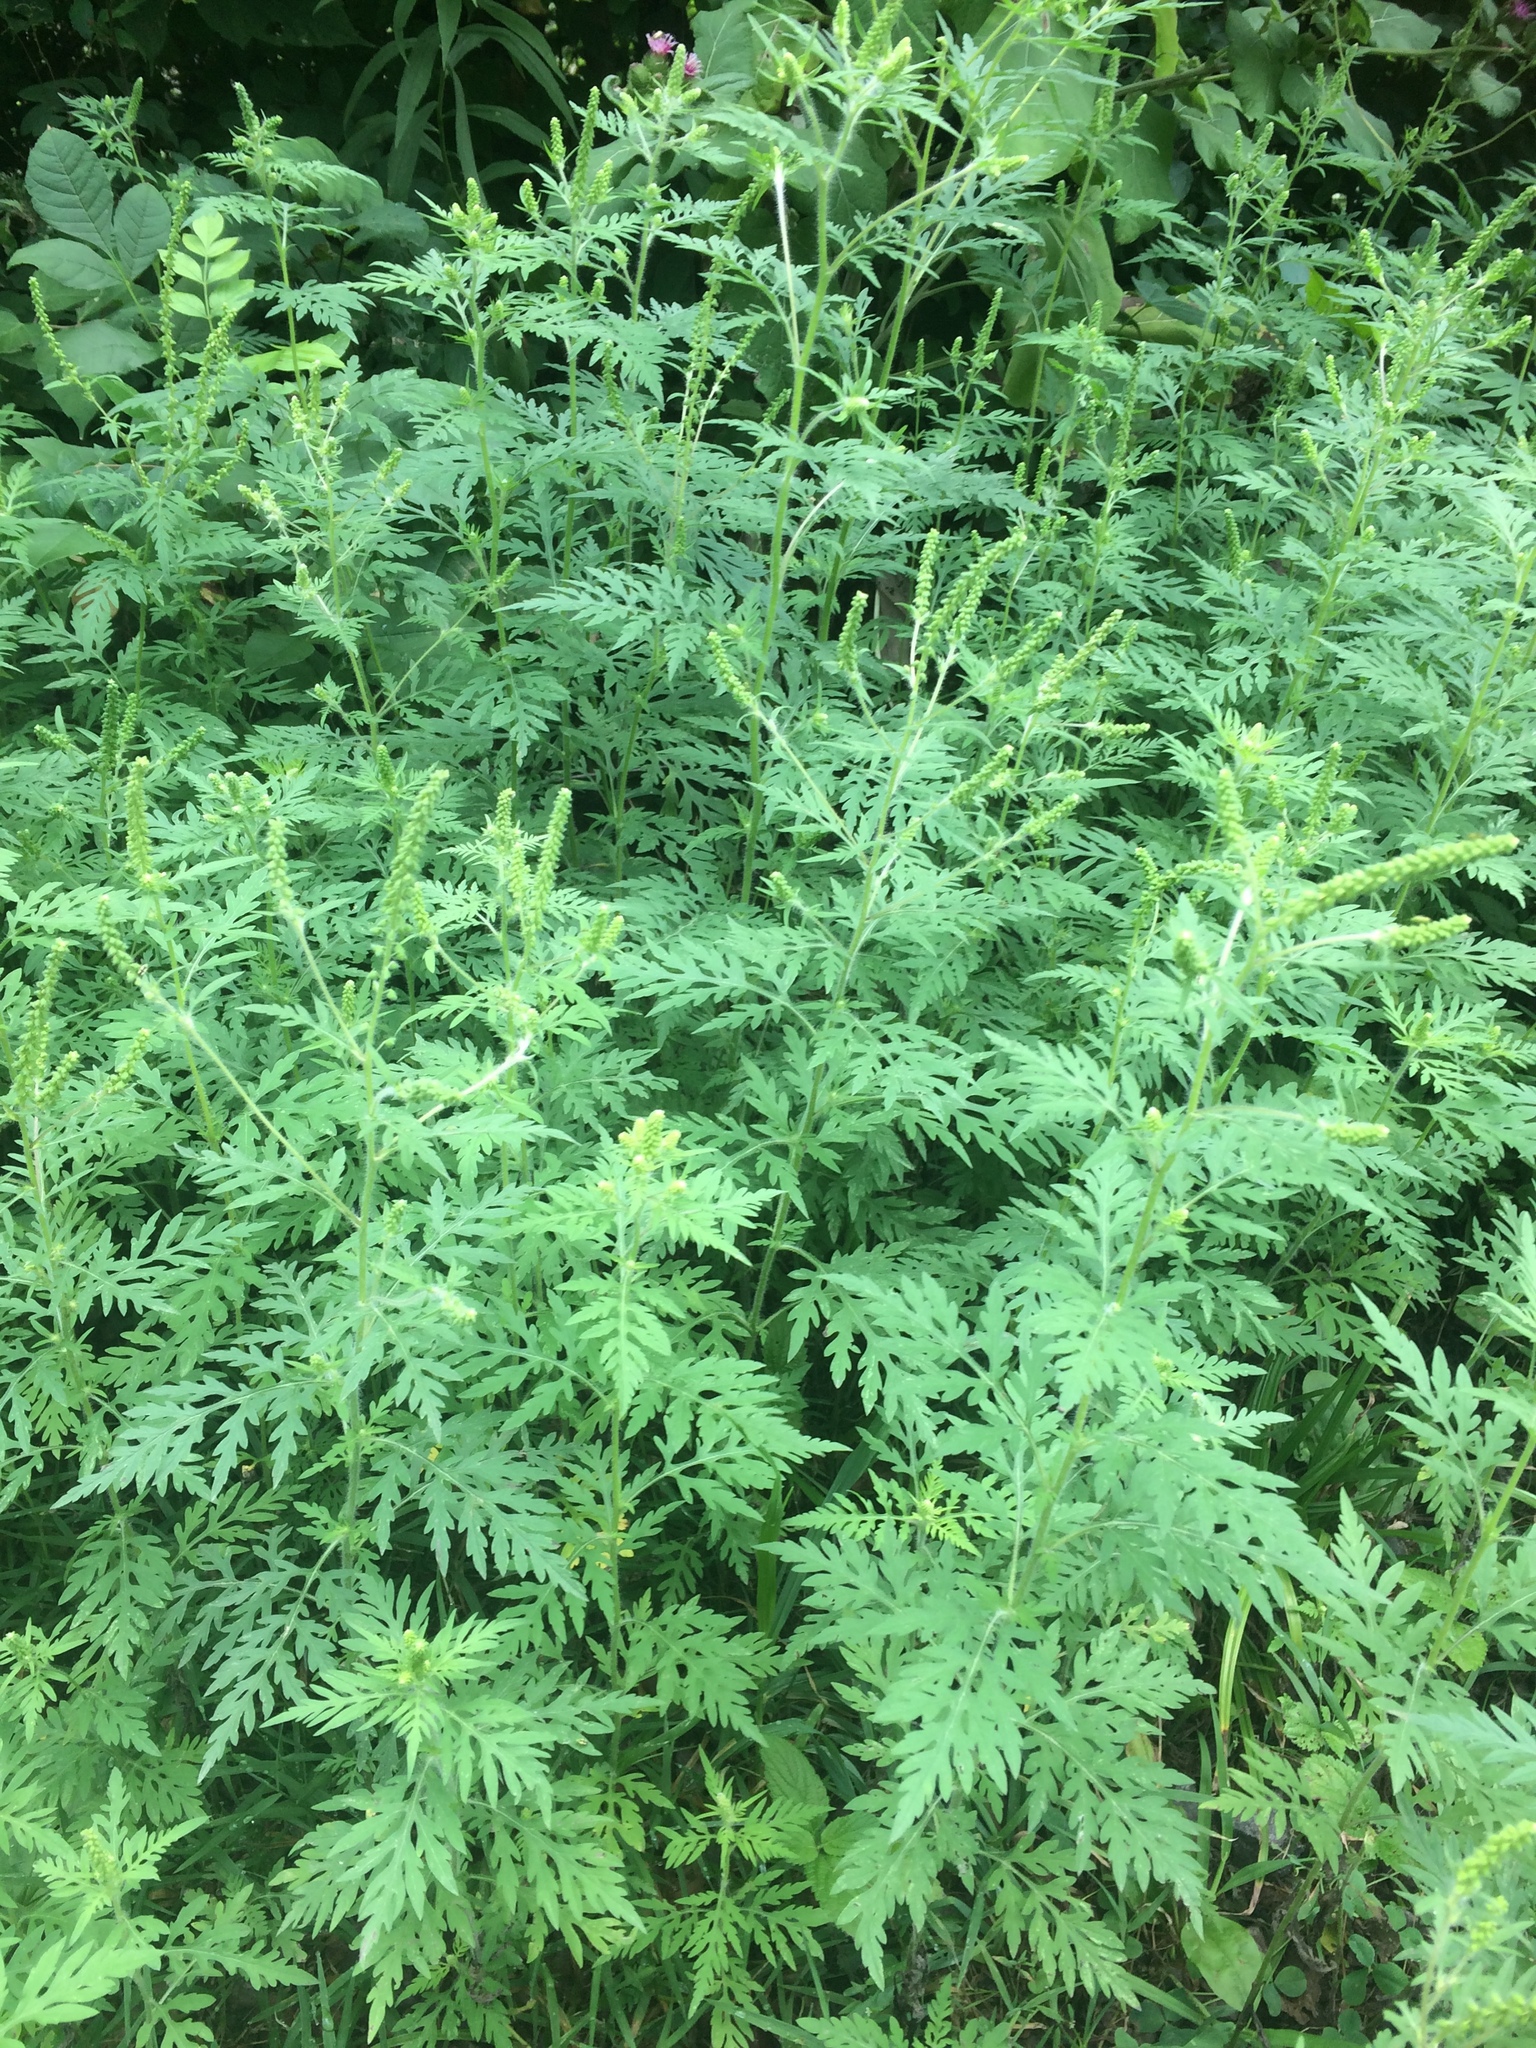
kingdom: Plantae
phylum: Tracheophyta
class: Magnoliopsida
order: Asterales
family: Asteraceae
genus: Ambrosia
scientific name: Ambrosia artemisiifolia
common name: Annual ragweed
